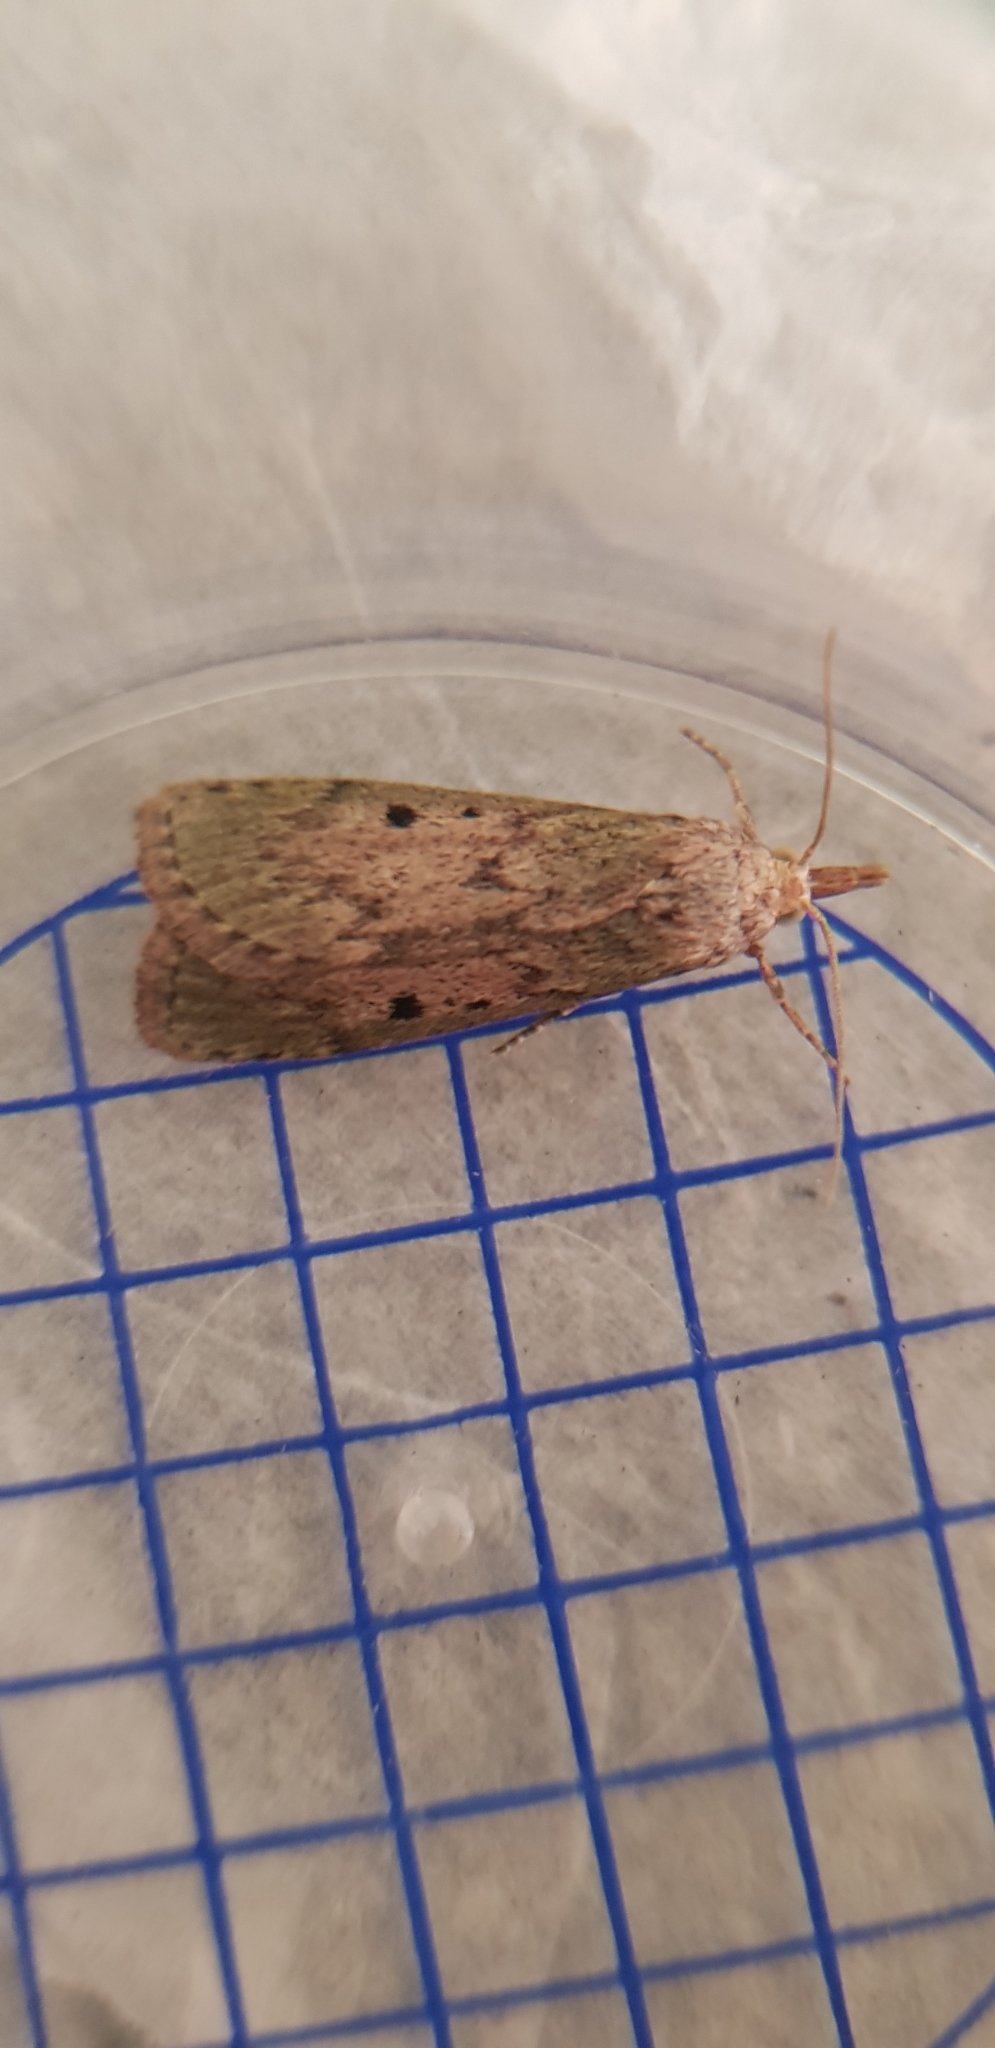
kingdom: Animalia
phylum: Arthropoda
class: Insecta
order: Lepidoptera
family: Pyralidae
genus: Aphomia
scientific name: Aphomia sociella
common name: Bee moth
